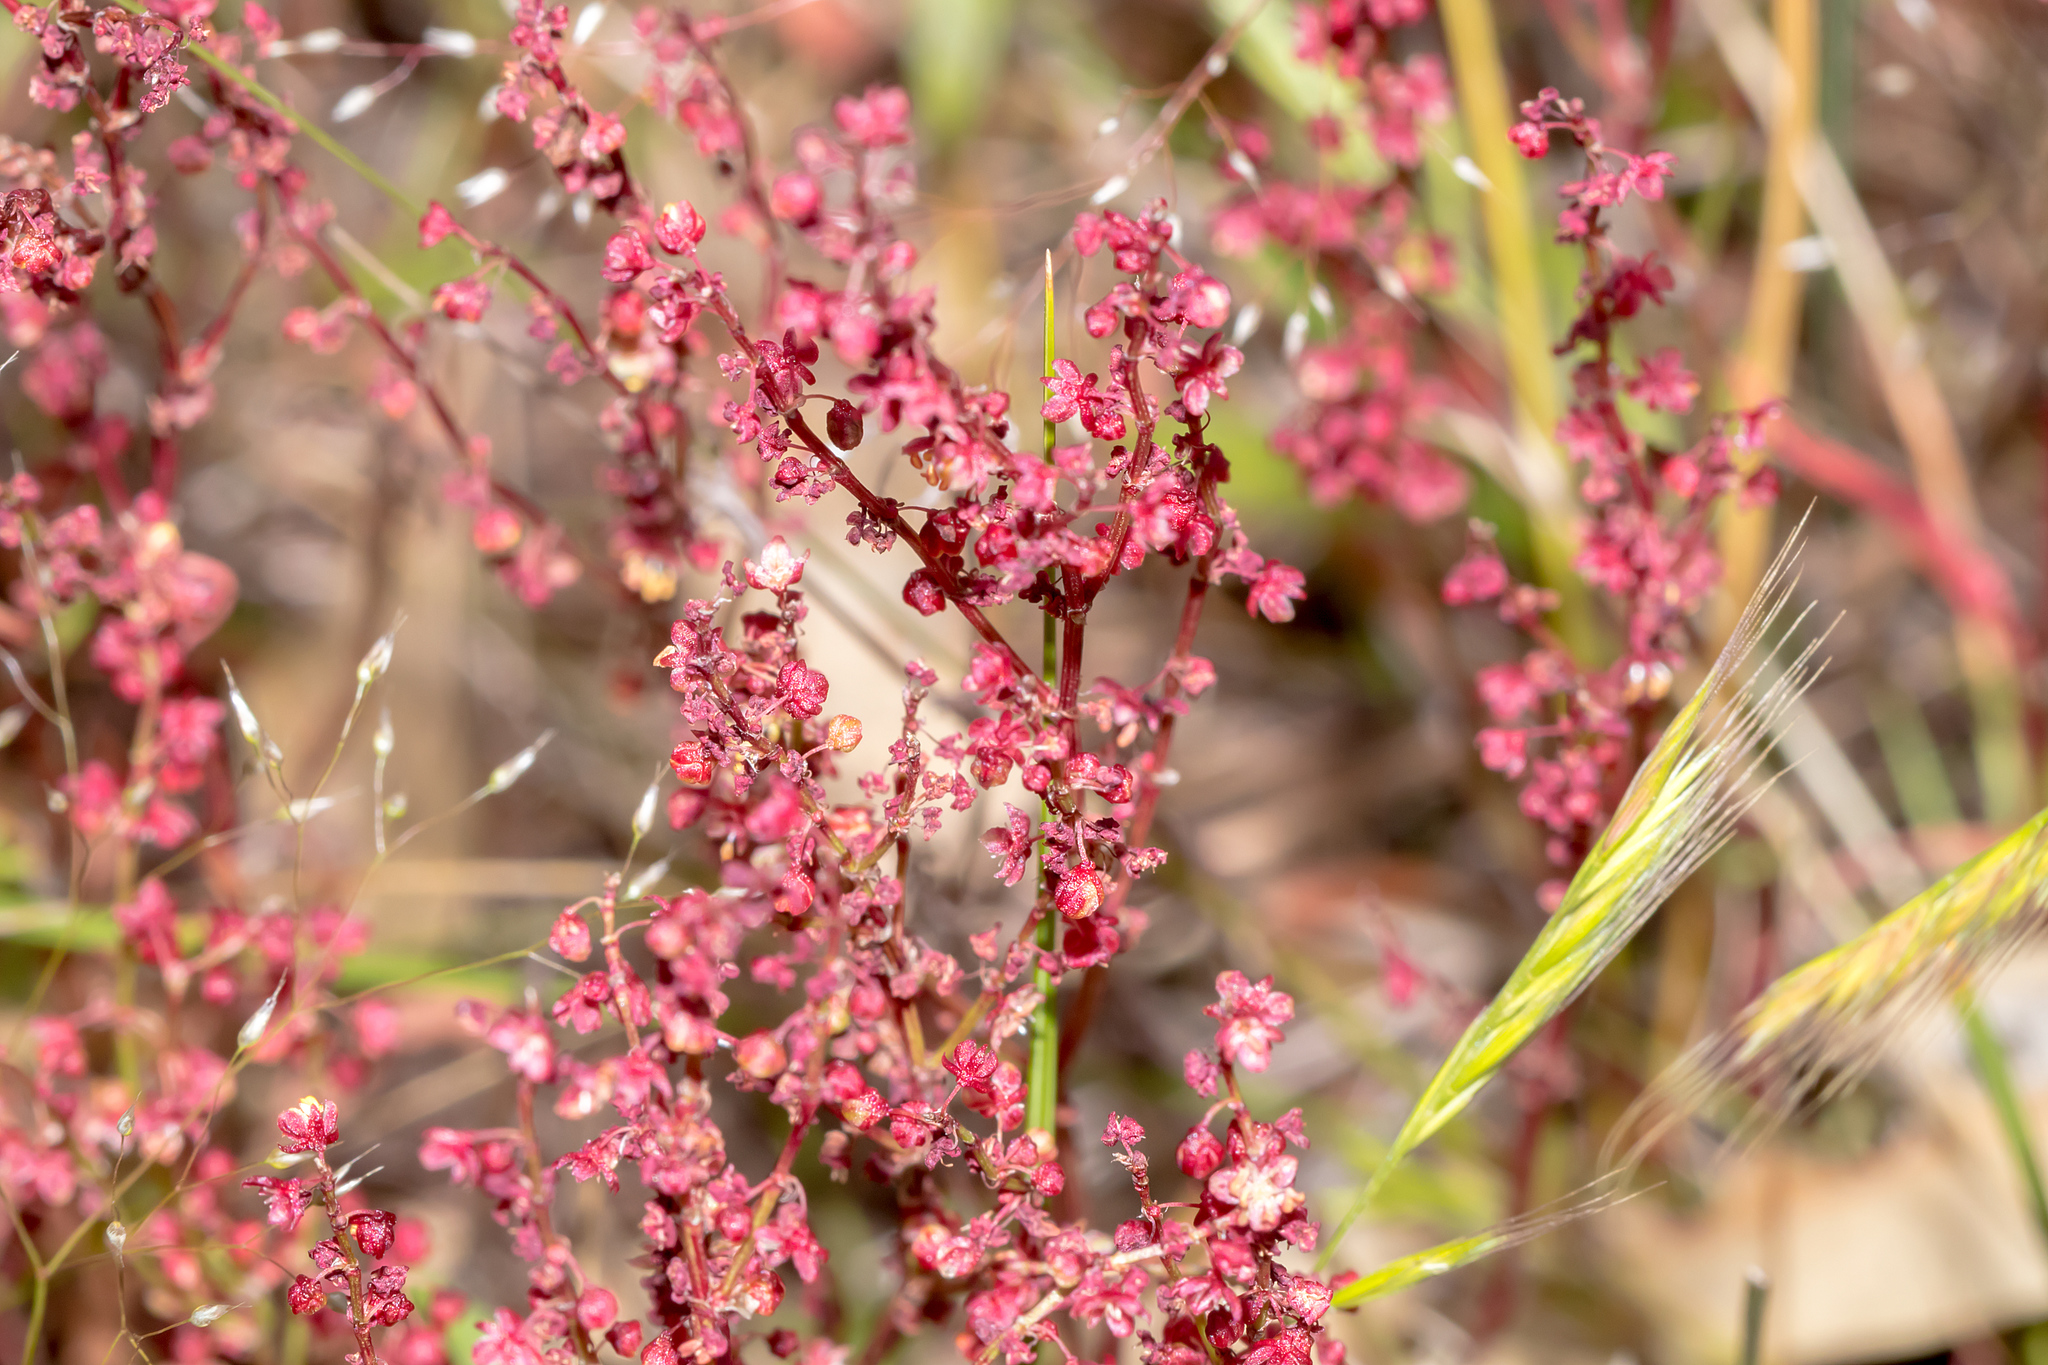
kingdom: Plantae
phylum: Tracheophyta
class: Magnoliopsida
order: Caryophyllales
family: Polygonaceae
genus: Rumex
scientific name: Rumex acetosella
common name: Common sheep sorrel
